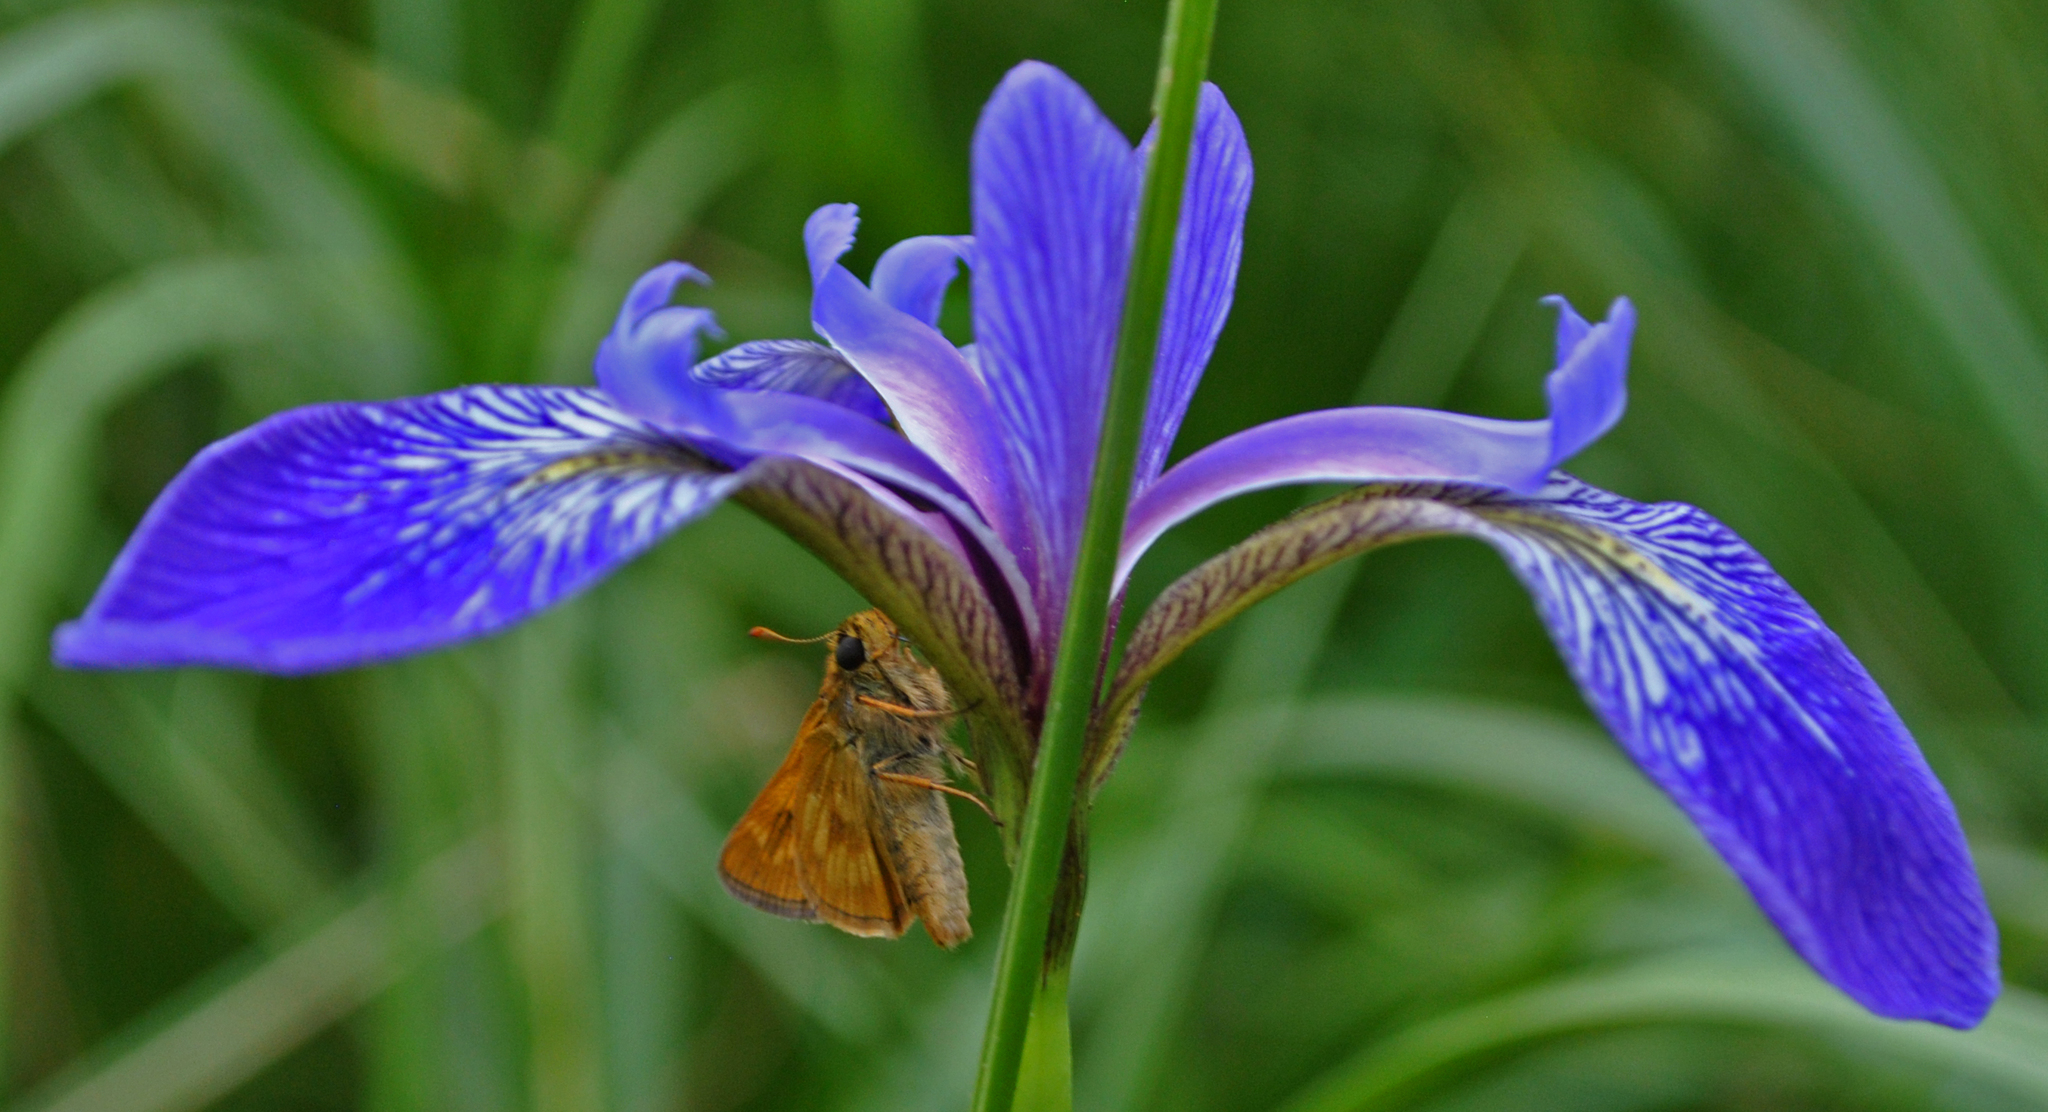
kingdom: Animalia
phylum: Arthropoda
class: Insecta
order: Lepidoptera
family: Hesperiidae
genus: Polites
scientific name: Polites mystic
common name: Long dash
